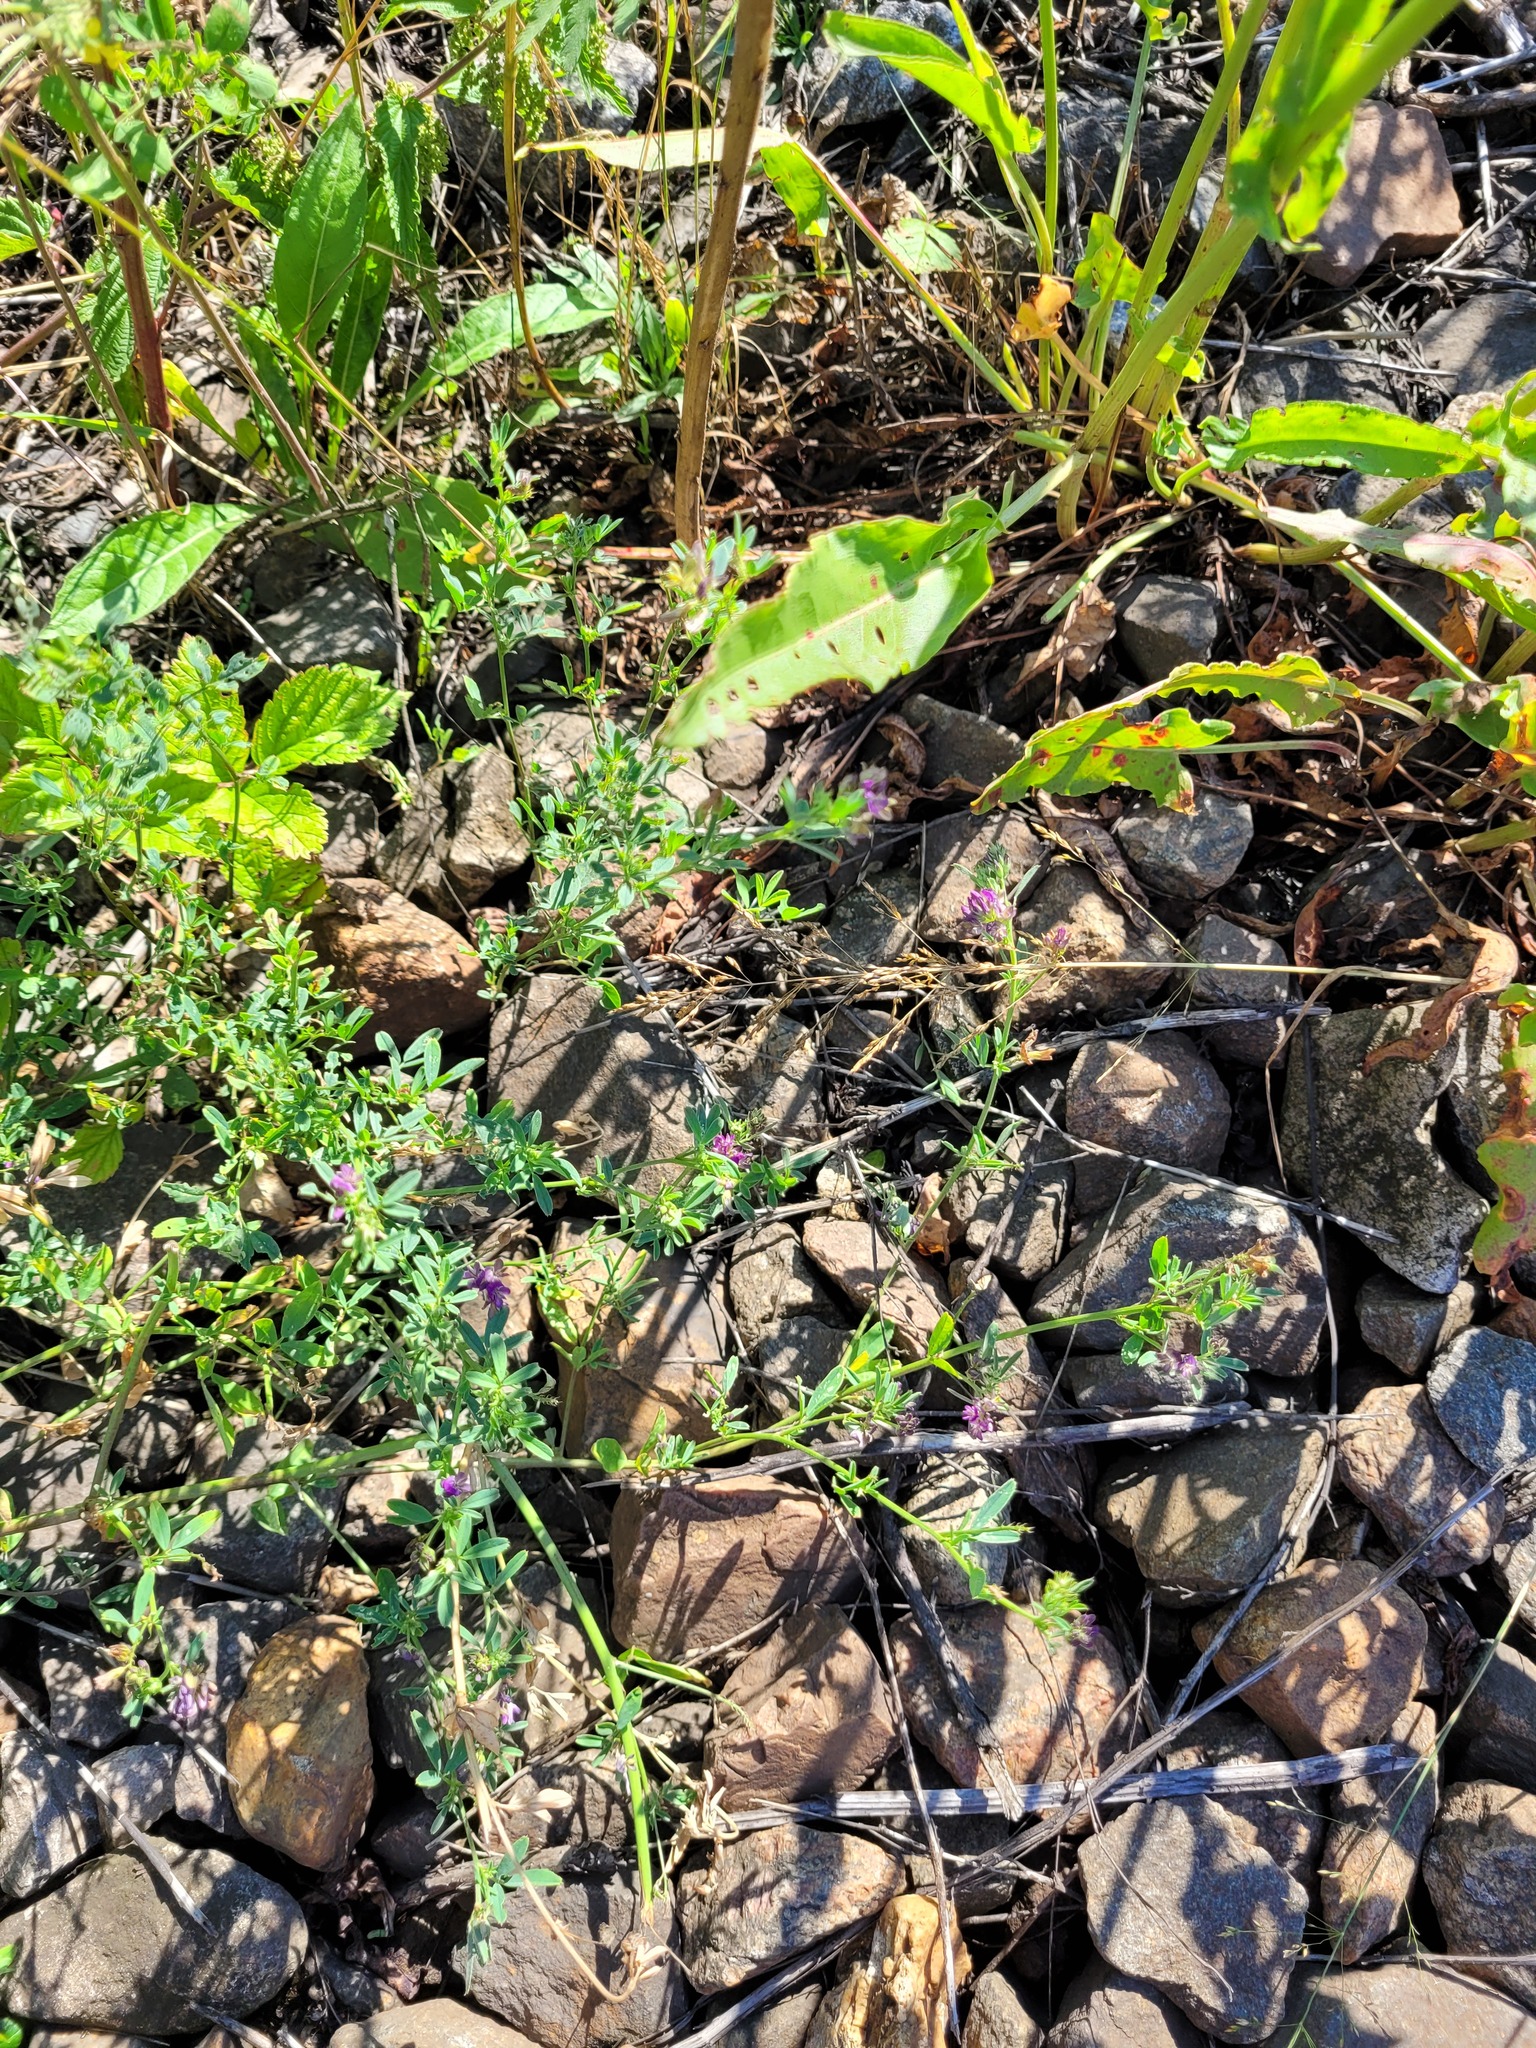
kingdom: Plantae
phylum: Tracheophyta
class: Magnoliopsida
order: Fabales
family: Fabaceae
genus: Medicago
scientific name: Medicago varia
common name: Sand lucerne
